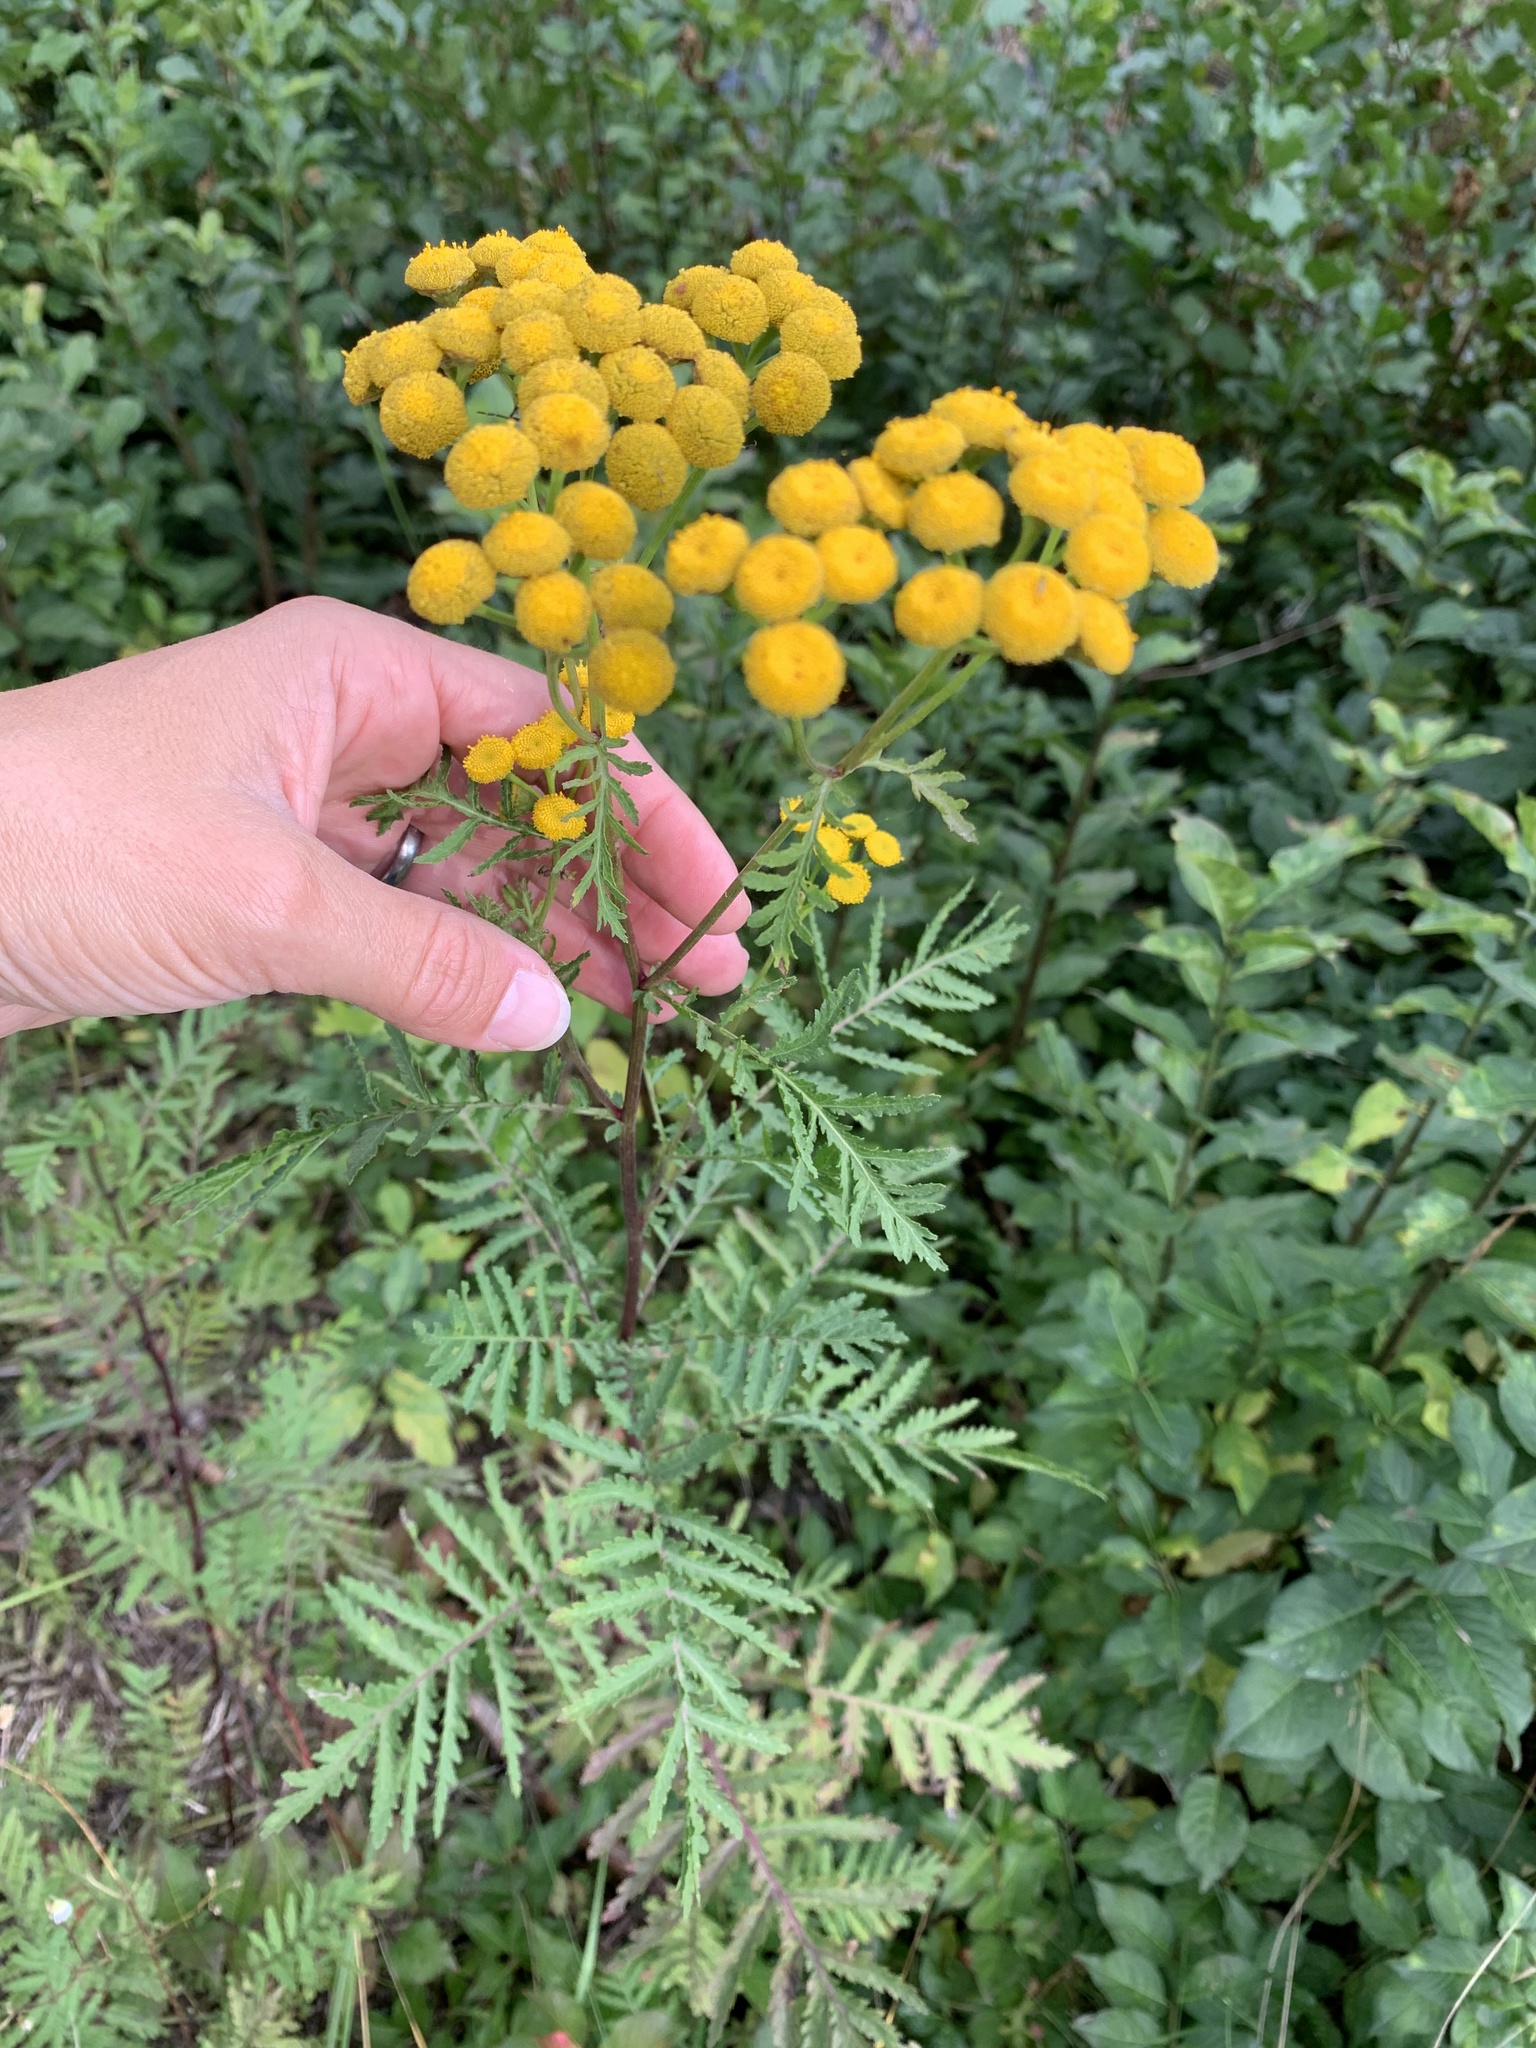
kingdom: Plantae
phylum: Tracheophyta
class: Magnoliopsida
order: Asterales
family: Asteraceae
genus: Tanacetum
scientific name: Tanacetum vulgare
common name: Common tansy
